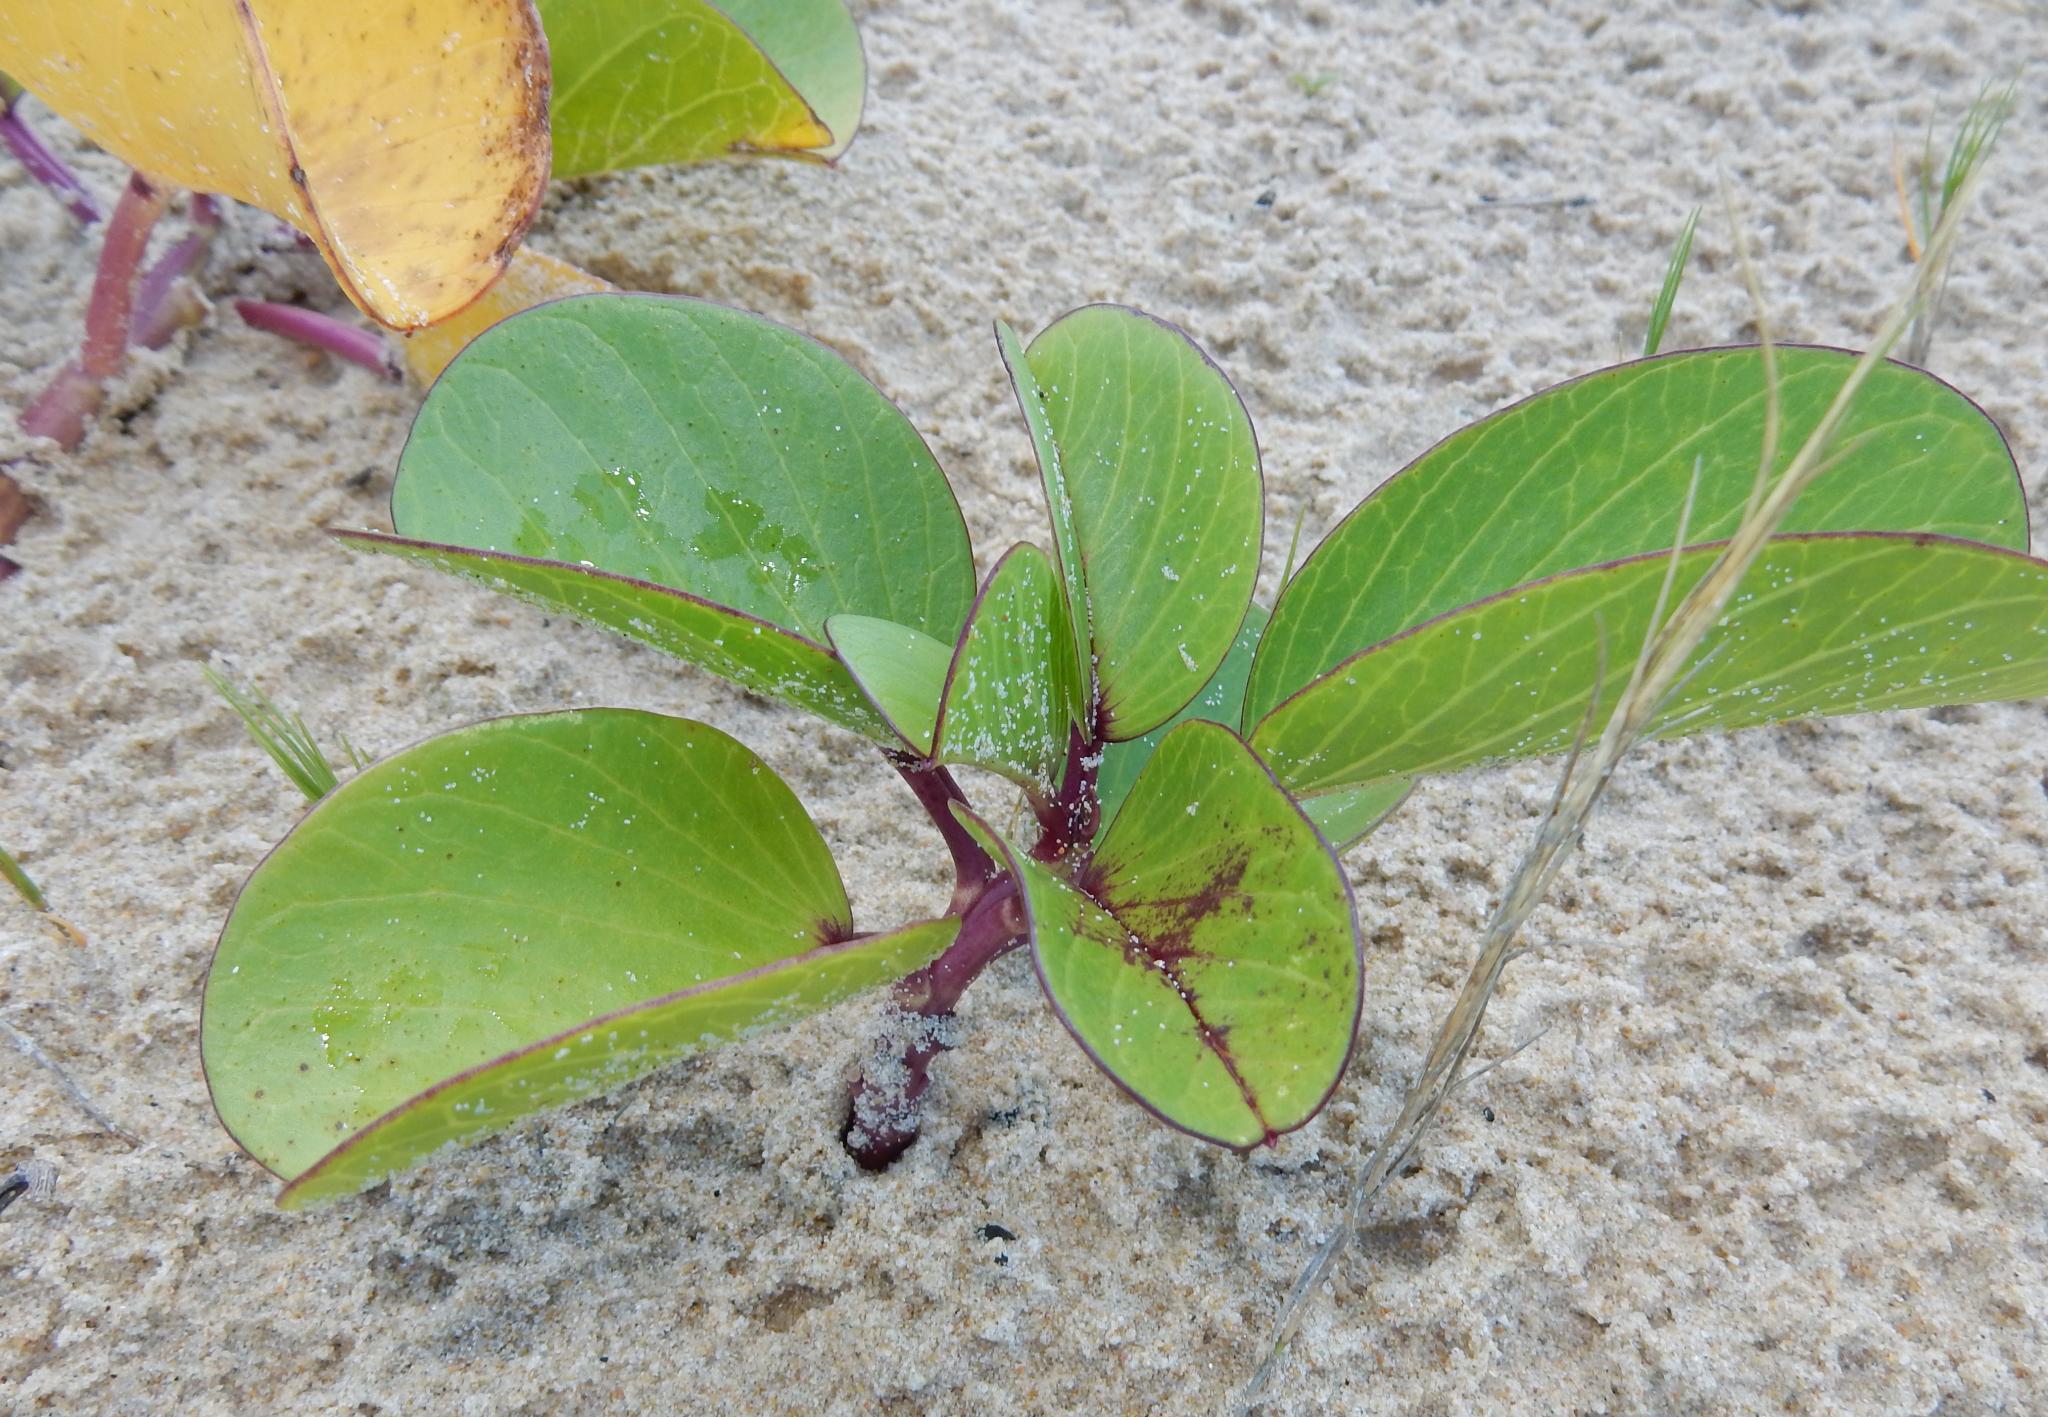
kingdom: Plantae
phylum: Tracheophyta
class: Magnoliopsida
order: Solanales
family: Convolvulaceae
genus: Ipomoea
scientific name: Ipomoea pes-caprae
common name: Beach morning glory
